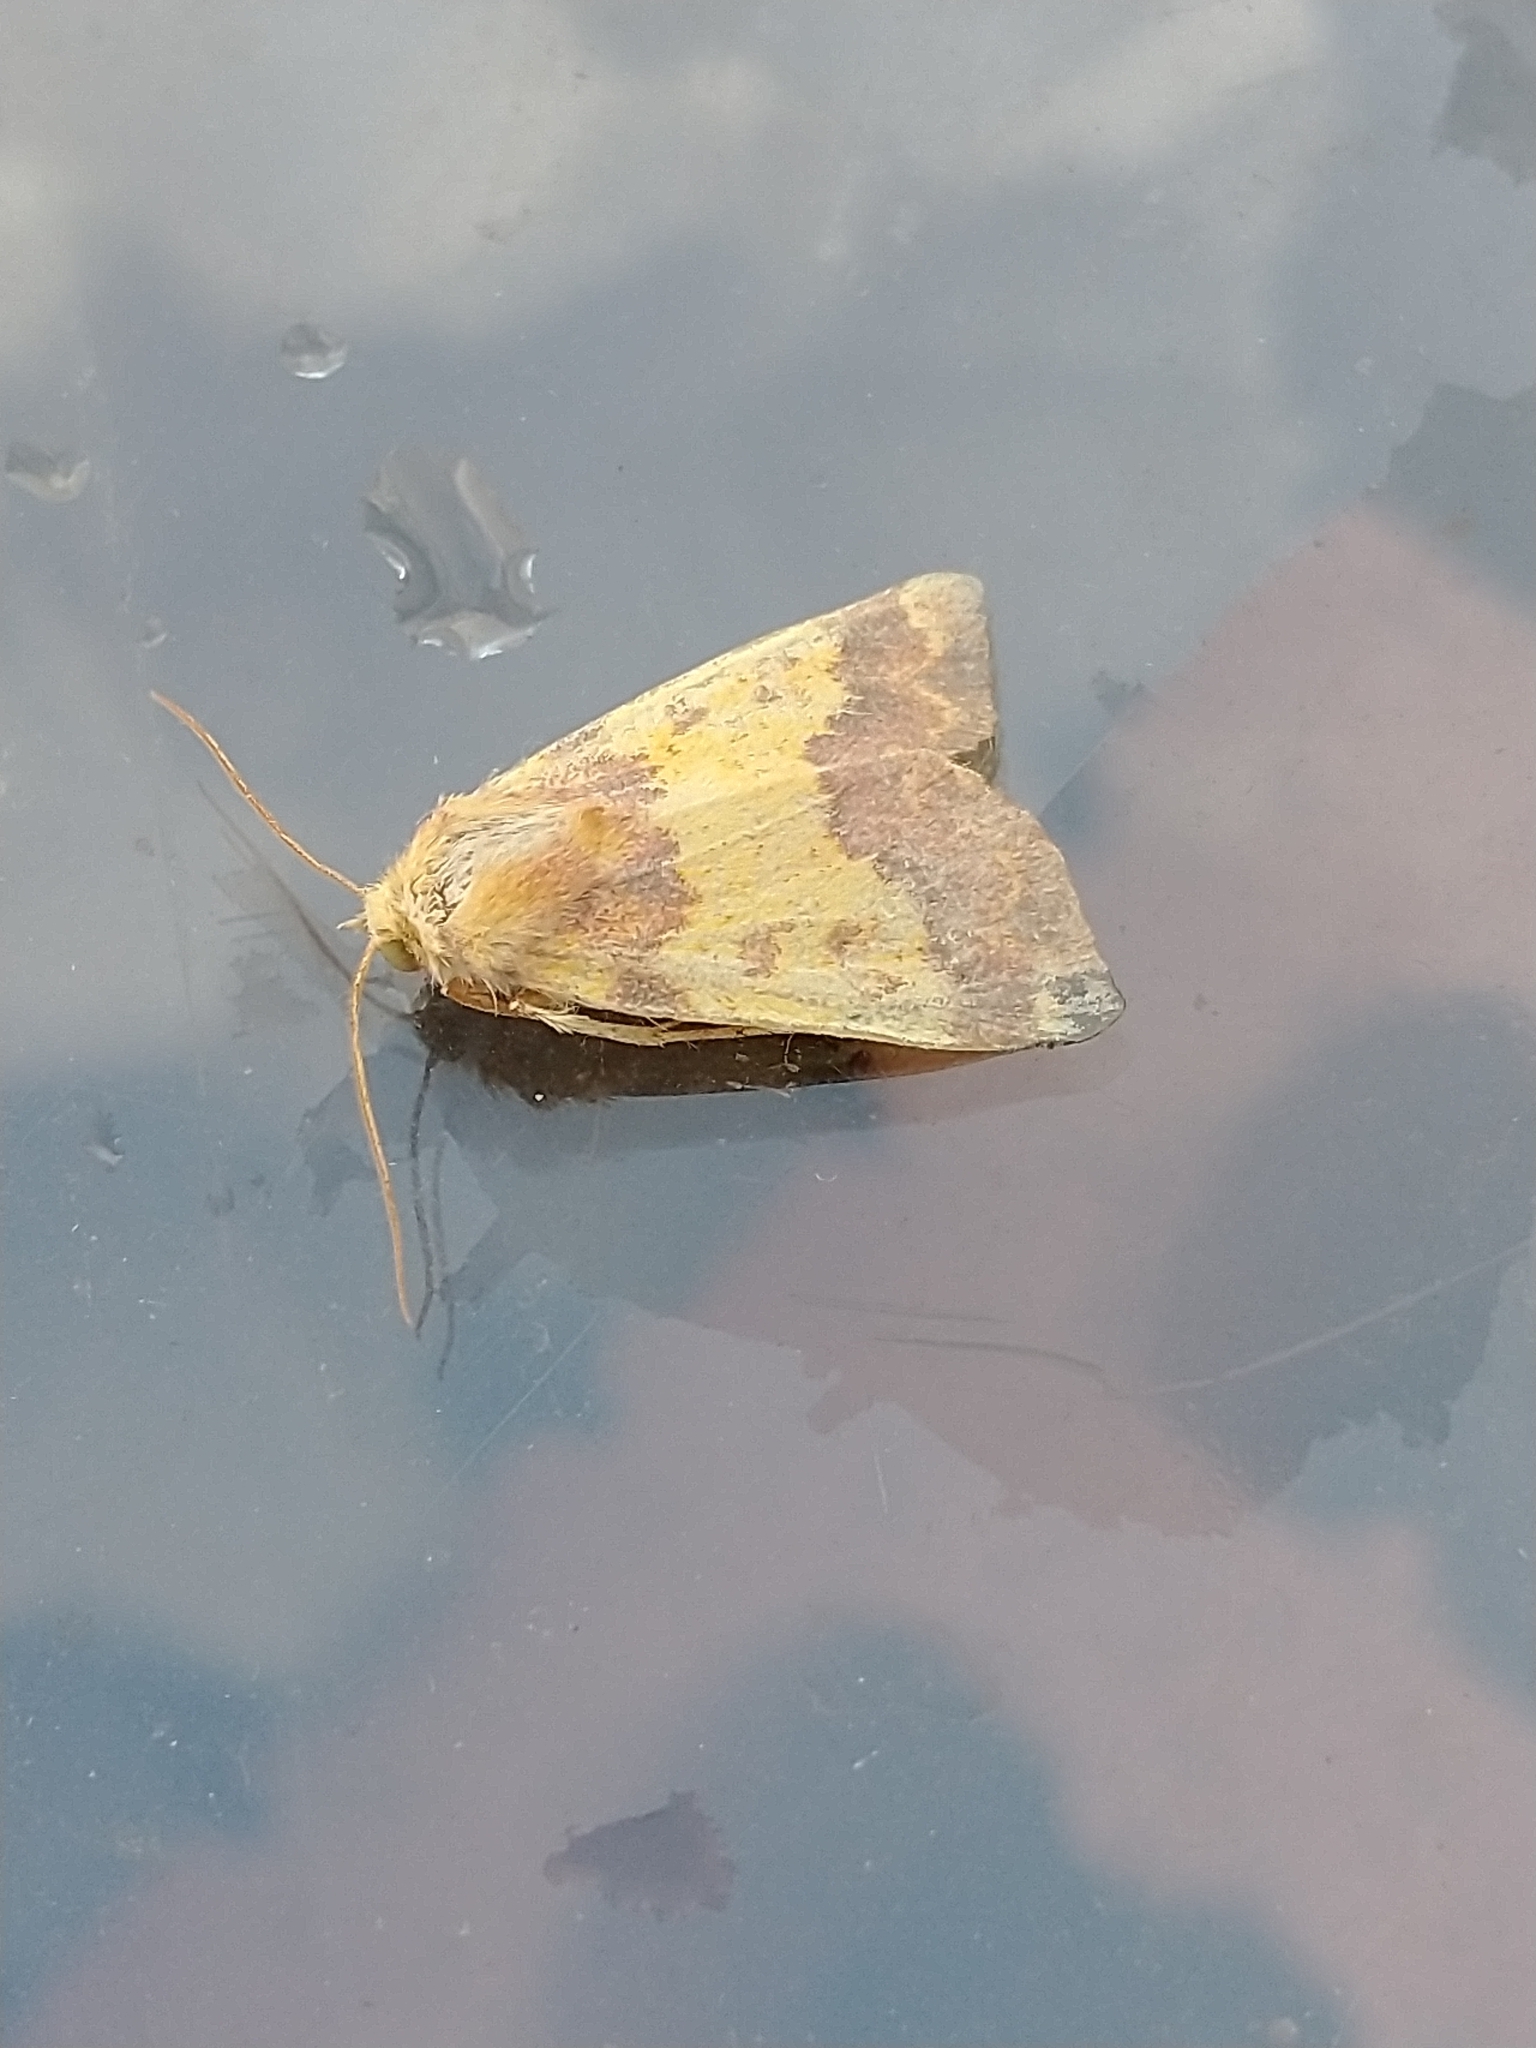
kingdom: Animalia
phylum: Arthropoda
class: Insecta
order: Lepidoptera
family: Noctuidae
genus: Tiliacea
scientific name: Tiliacea aurago
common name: Barred sallow
